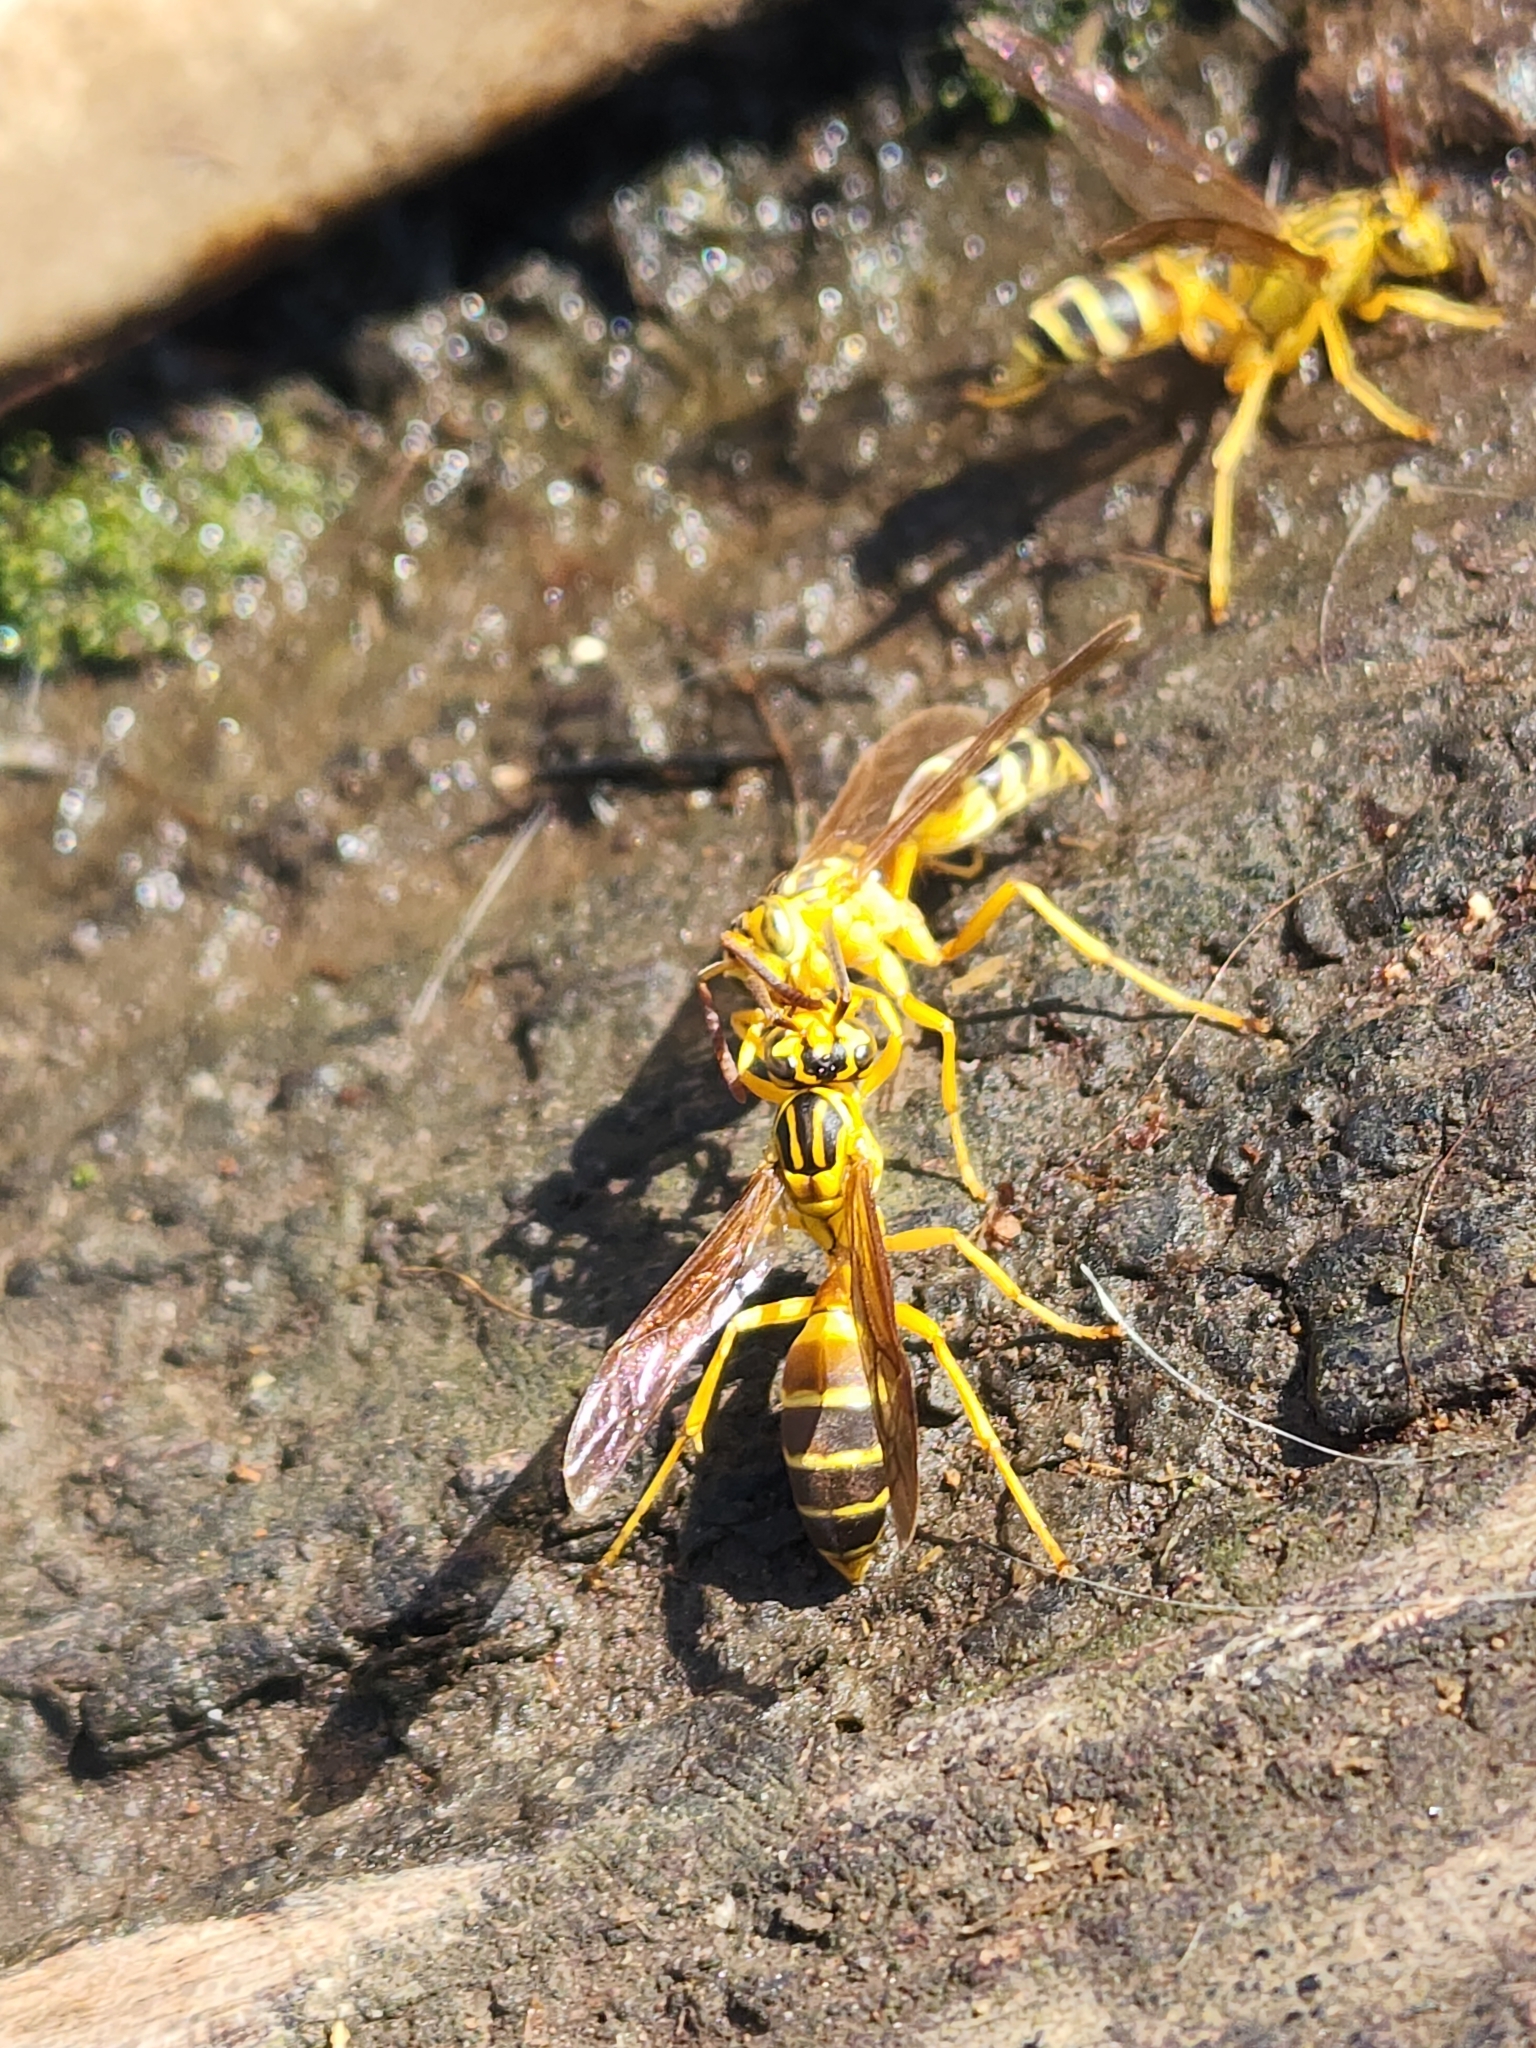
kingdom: Animalia
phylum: Arthropoda
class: Insecta
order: Hymenoptera
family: Vespidae
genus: Agelaia
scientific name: Agelaia
